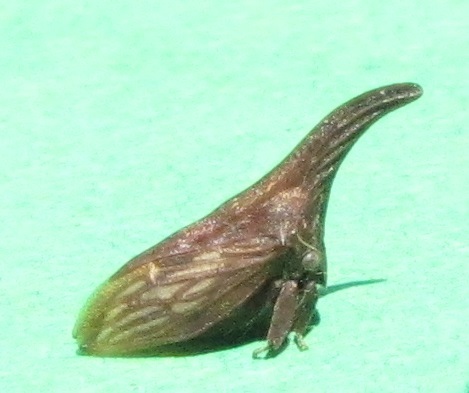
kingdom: Animalia
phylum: Arthropoda
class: Insecta
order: Hemiptera
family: Membracidae
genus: Enchenopa
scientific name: Enchenopa latipes
